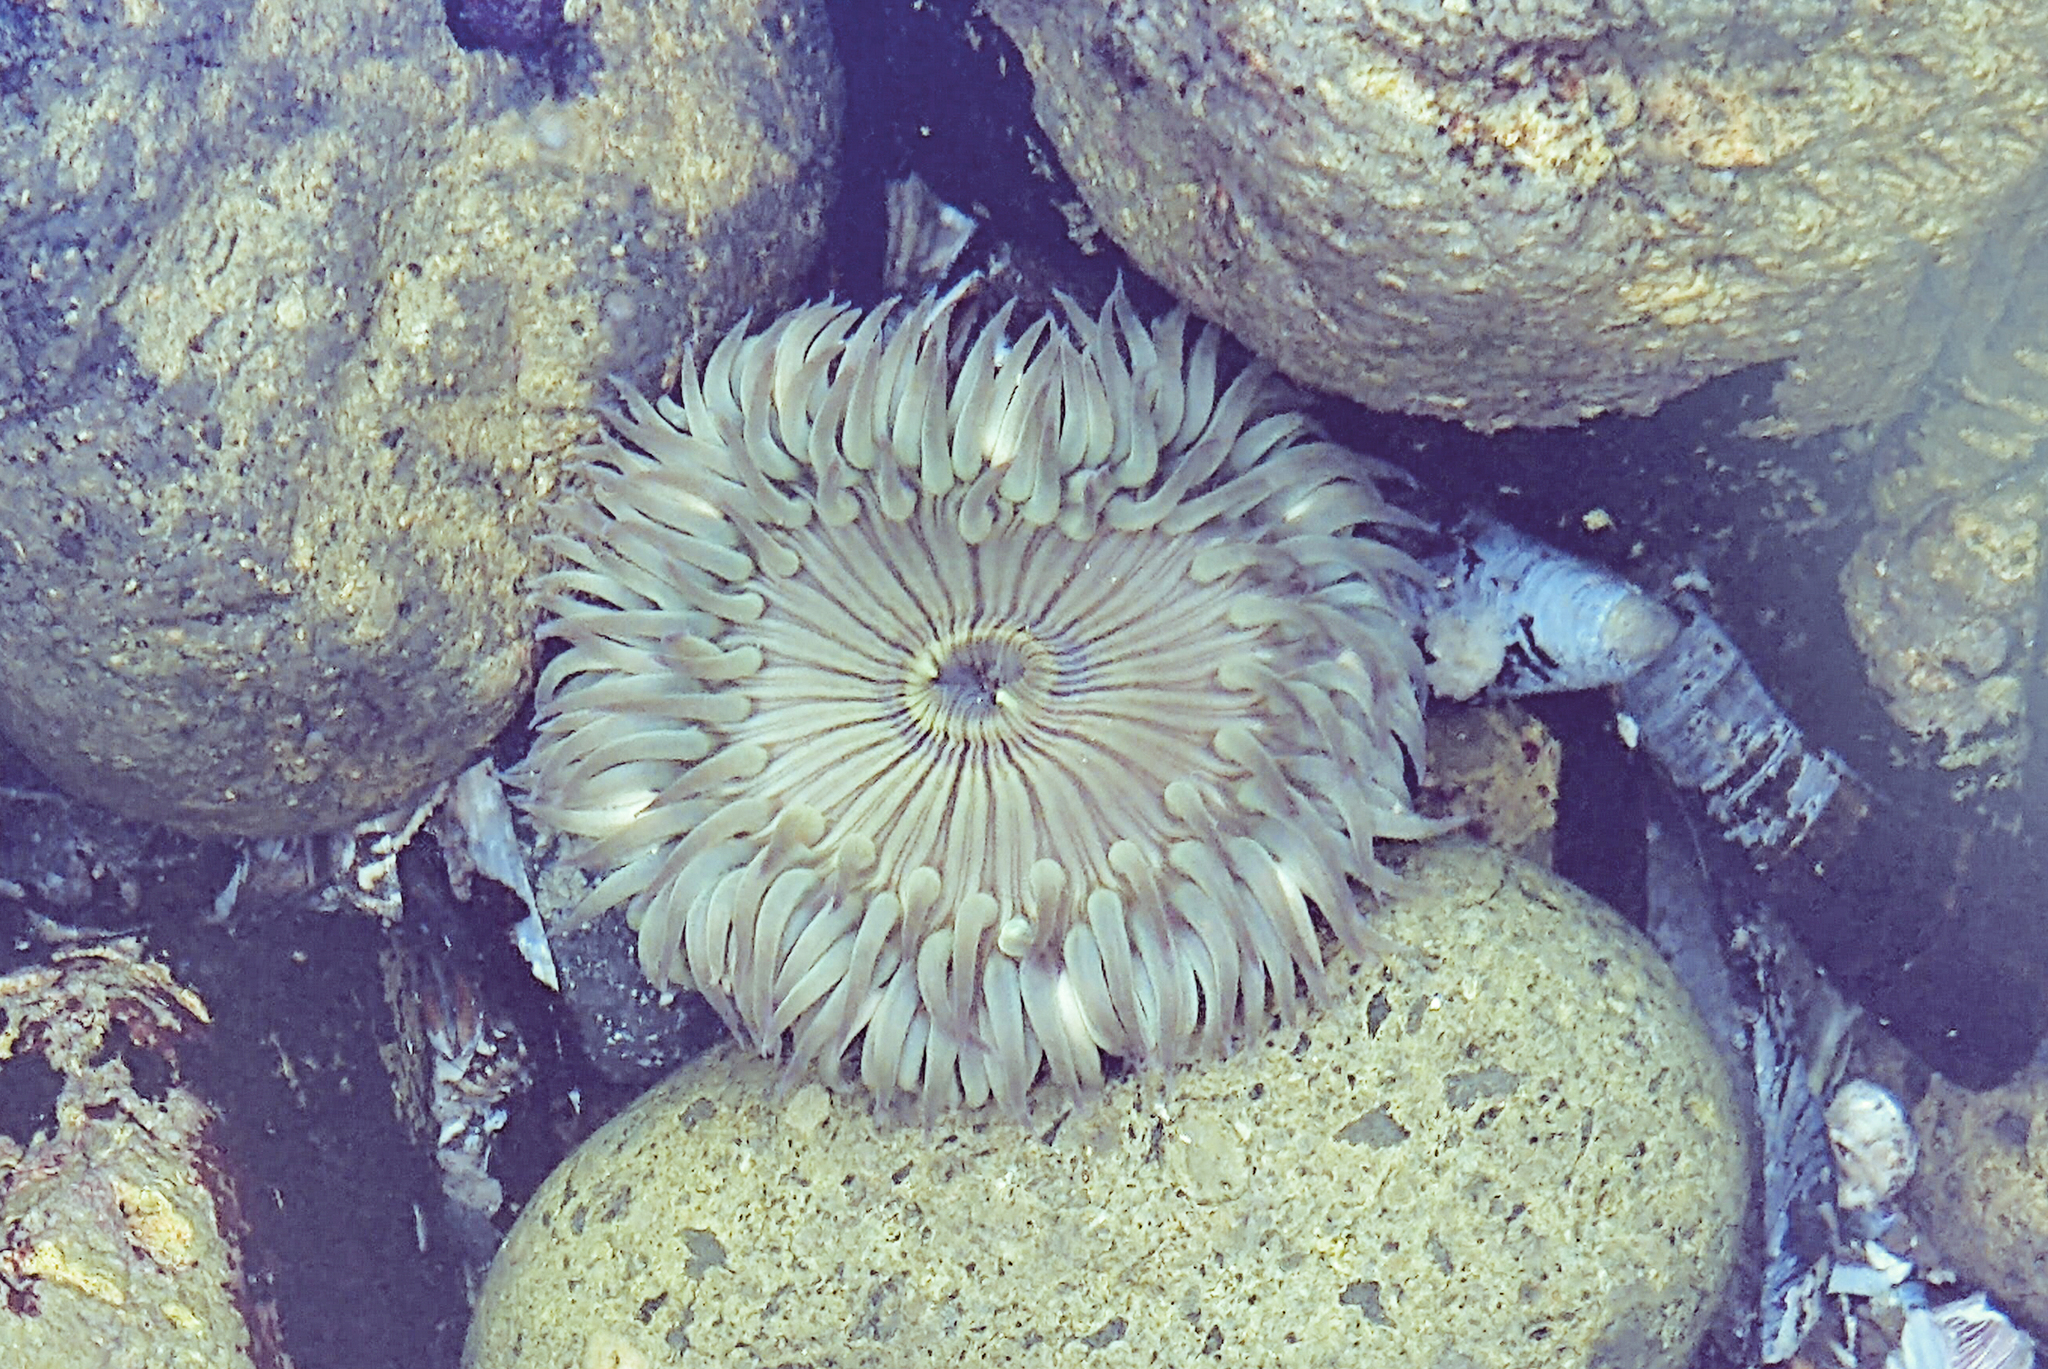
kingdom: Animalia
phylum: Cnidaria
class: Anthozoa
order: Actiniaria
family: Actiniidae
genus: Anthopleura
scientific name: Anthopleura sola
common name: Sun anemone
